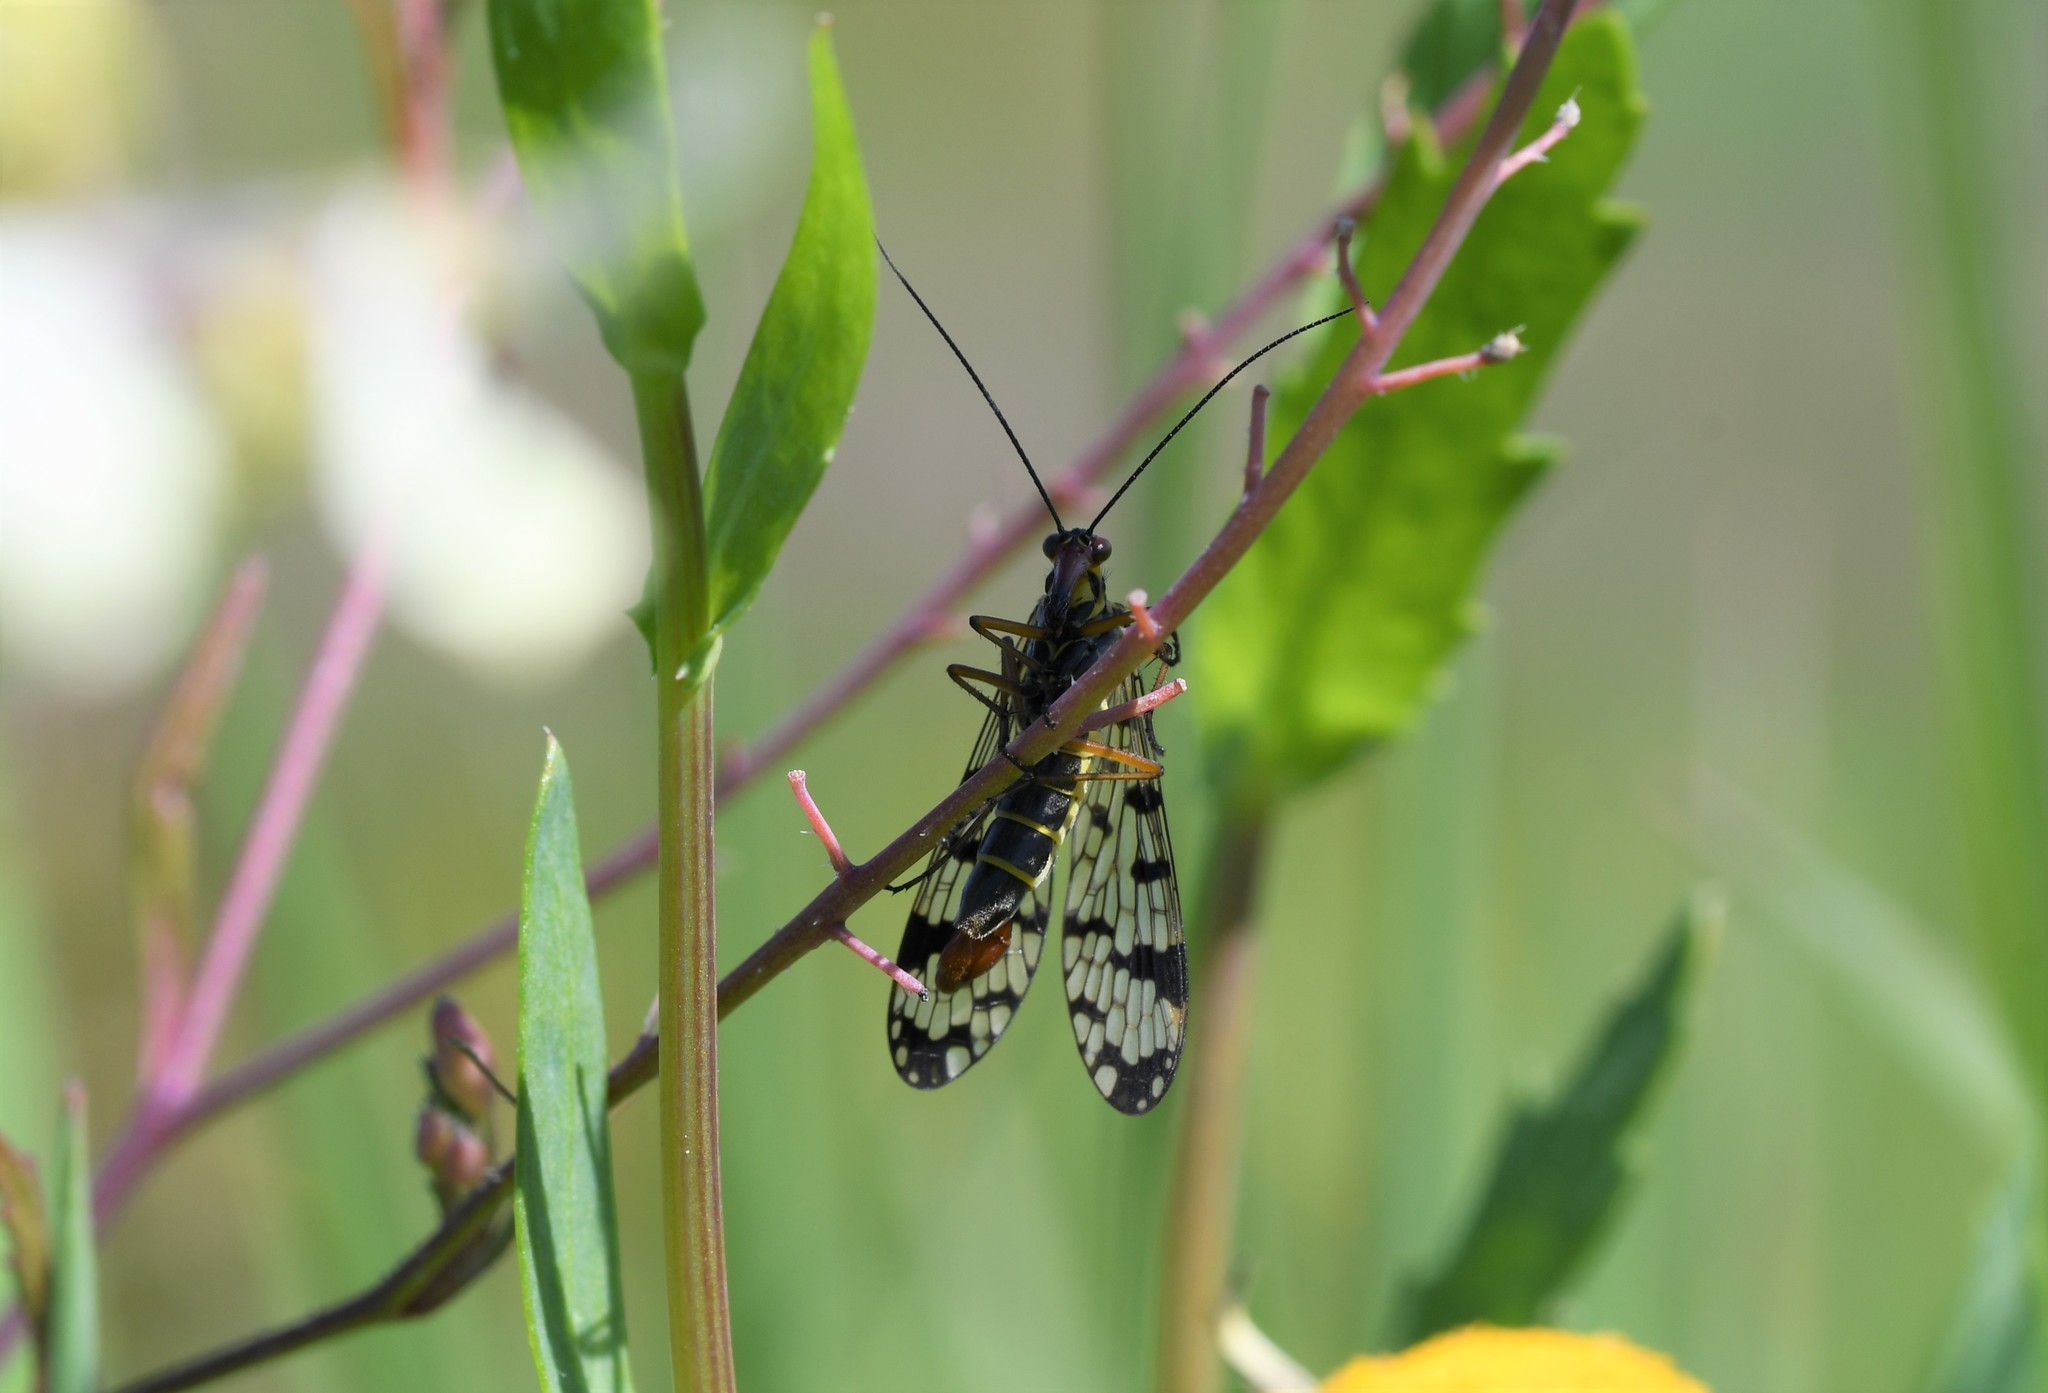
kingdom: Animalia
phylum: Arthropoda
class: Insecta
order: Mecoptera
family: Panorpidae
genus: Panorpa
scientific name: Panorpa meridionalis
